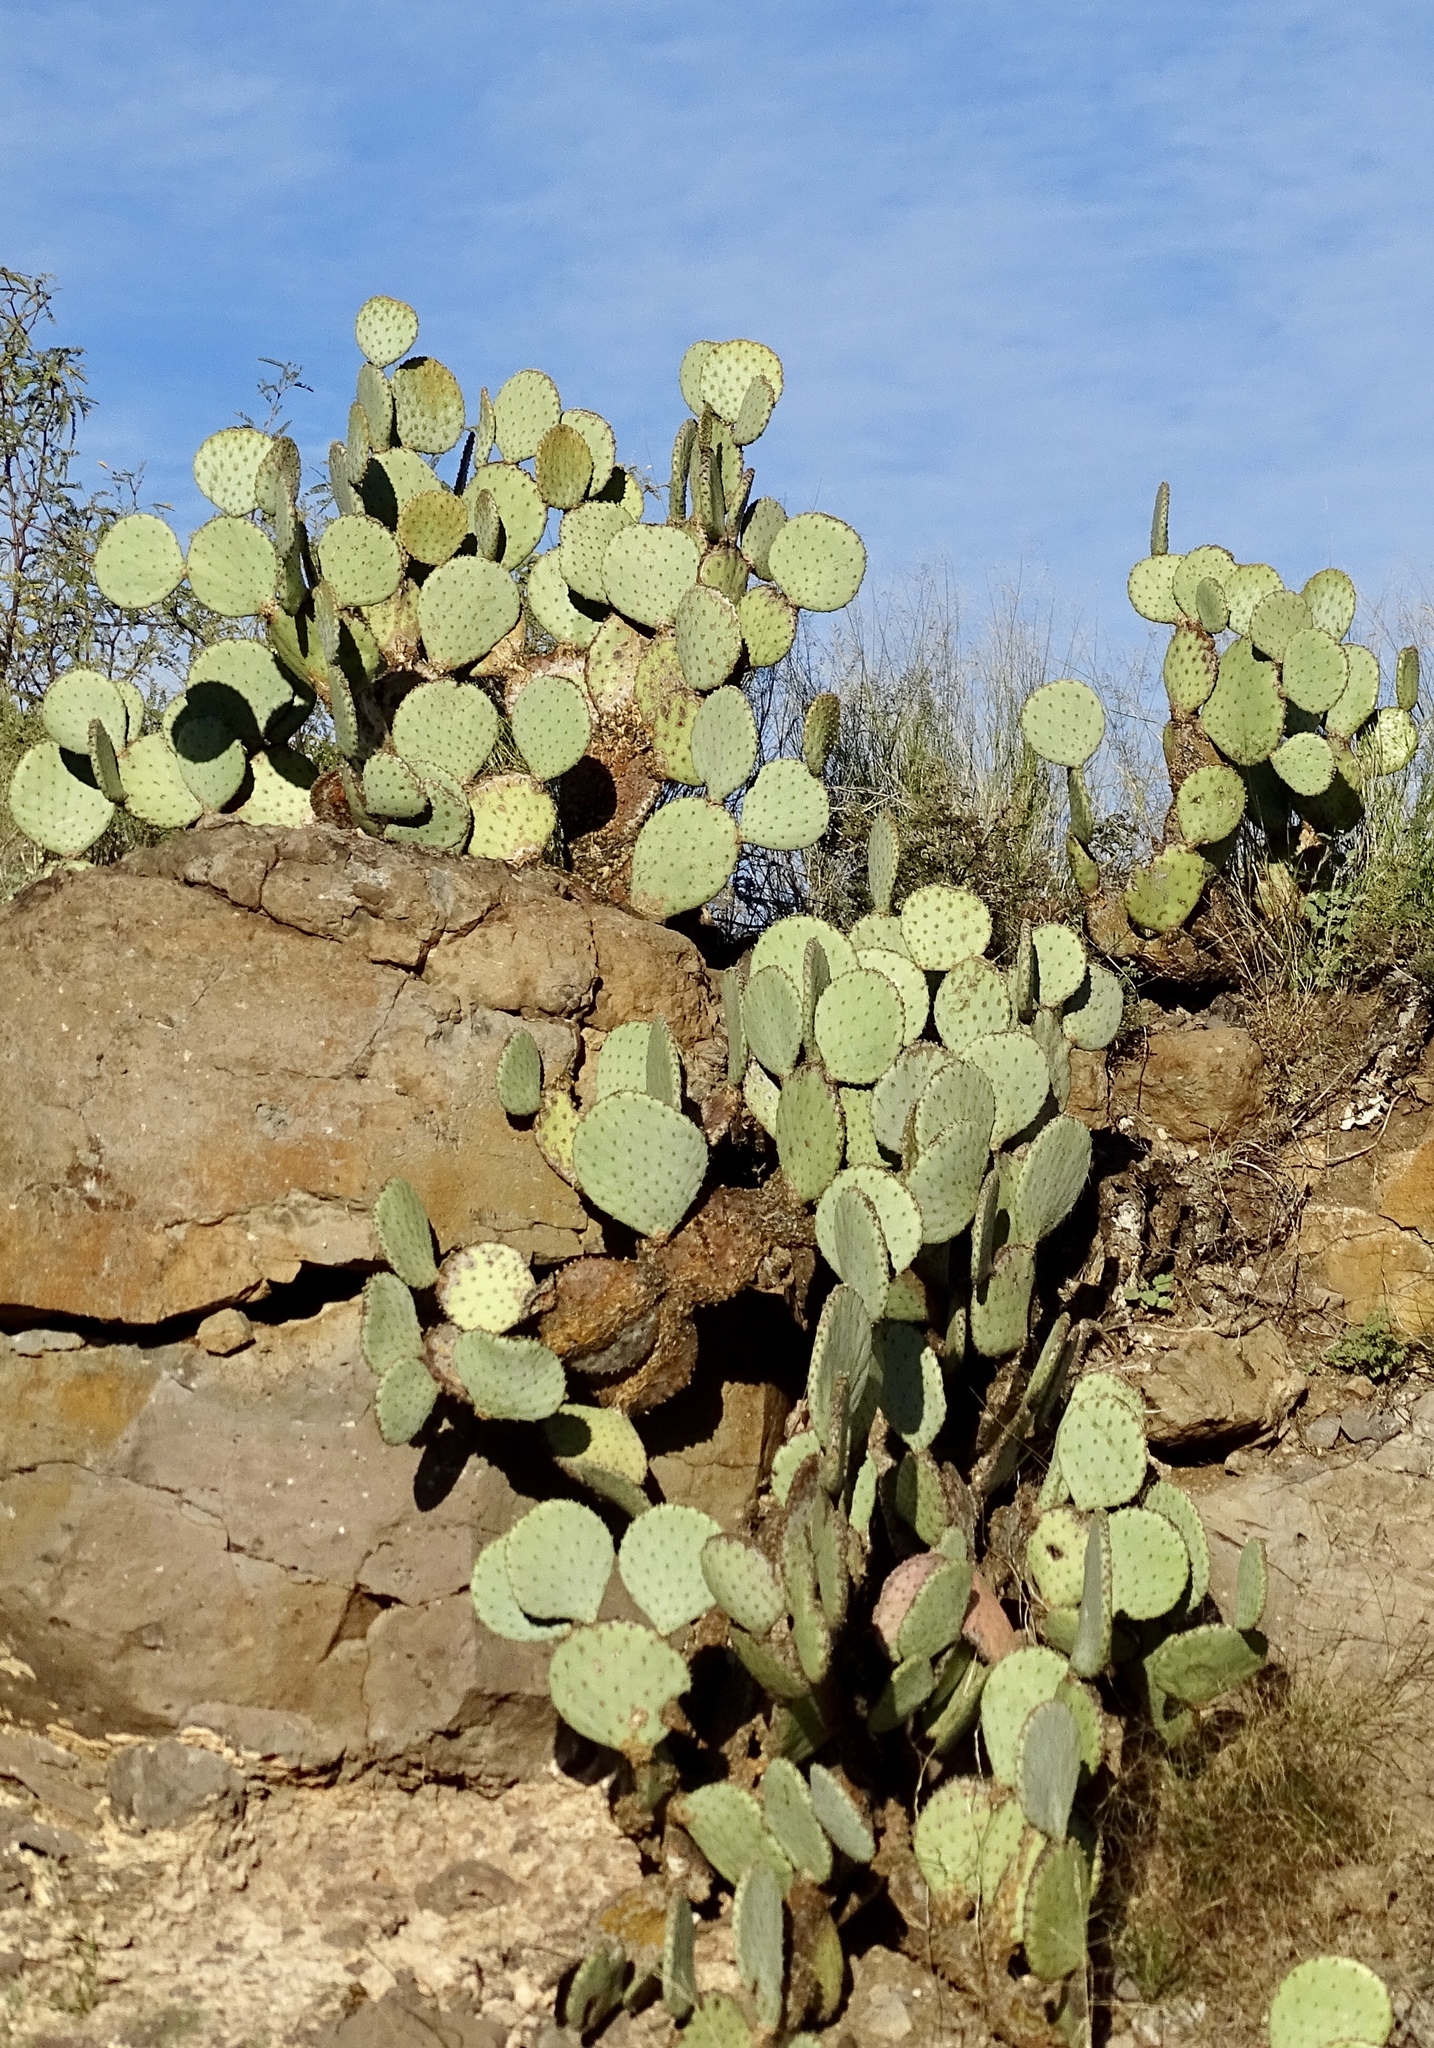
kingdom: Plantae
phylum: Tracheophyta
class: Magnoliopsida
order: Caryophyllales
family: Cactaceae
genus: Opuntia
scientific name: Opuntia chlorotica
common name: Dollar-joint prickly-pear
